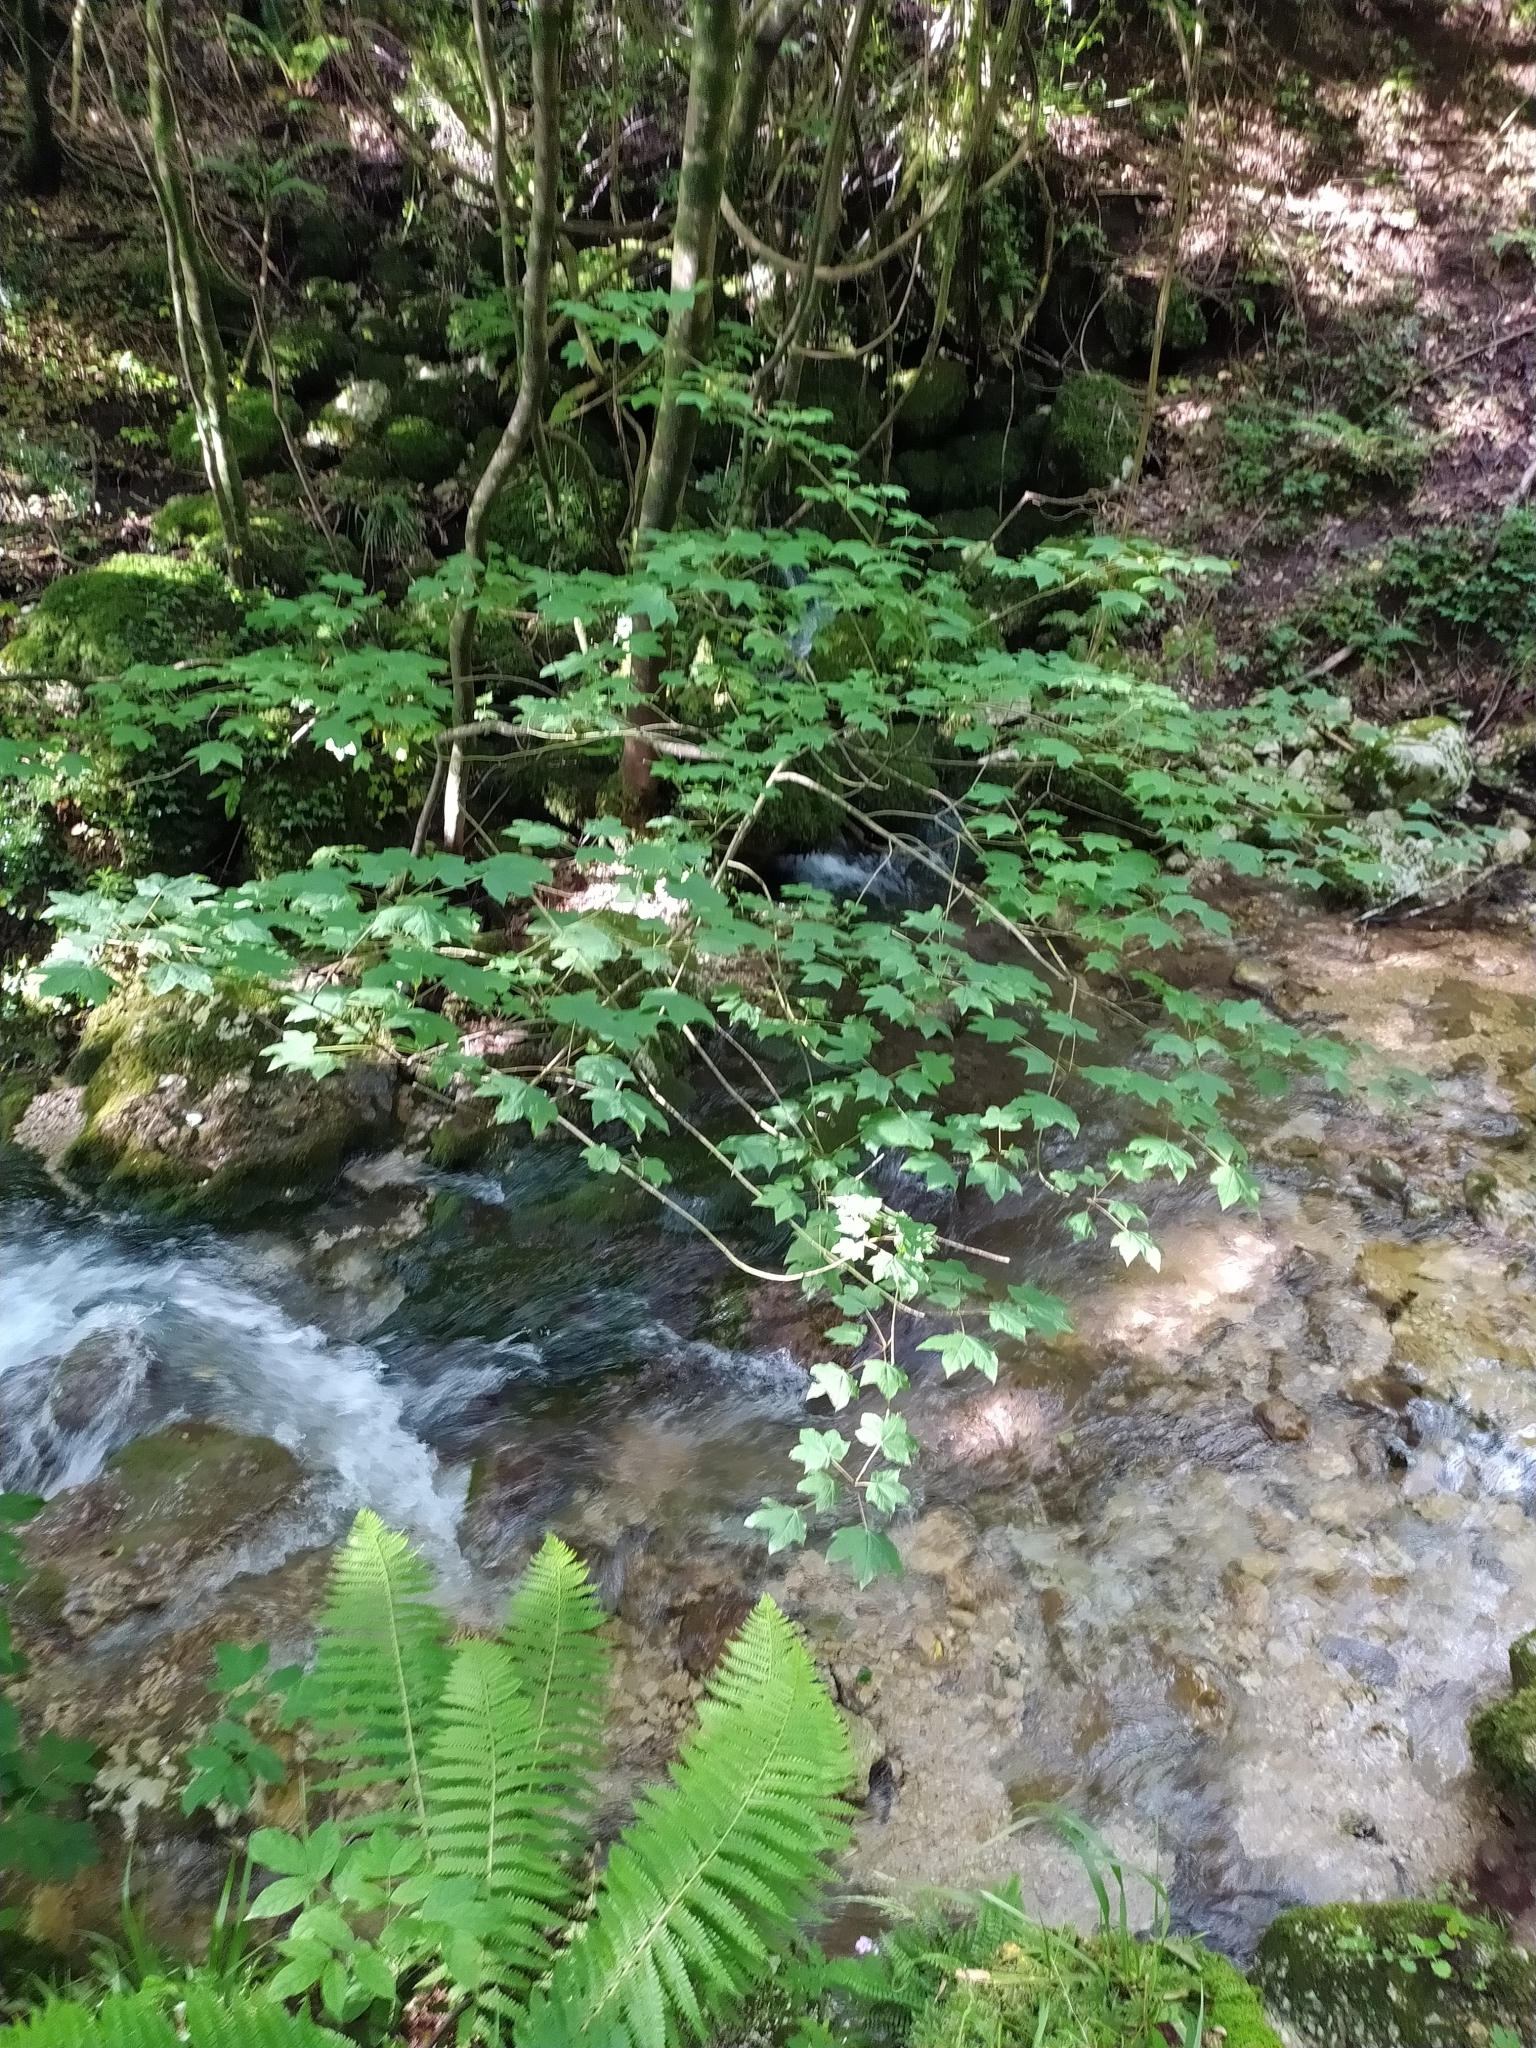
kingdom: Plantae
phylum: Tracheophyta
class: Magnoliopsida
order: Sapindales
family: Sapindaceae
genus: Acer
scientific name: Acer lobelii
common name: Lobel's maple
